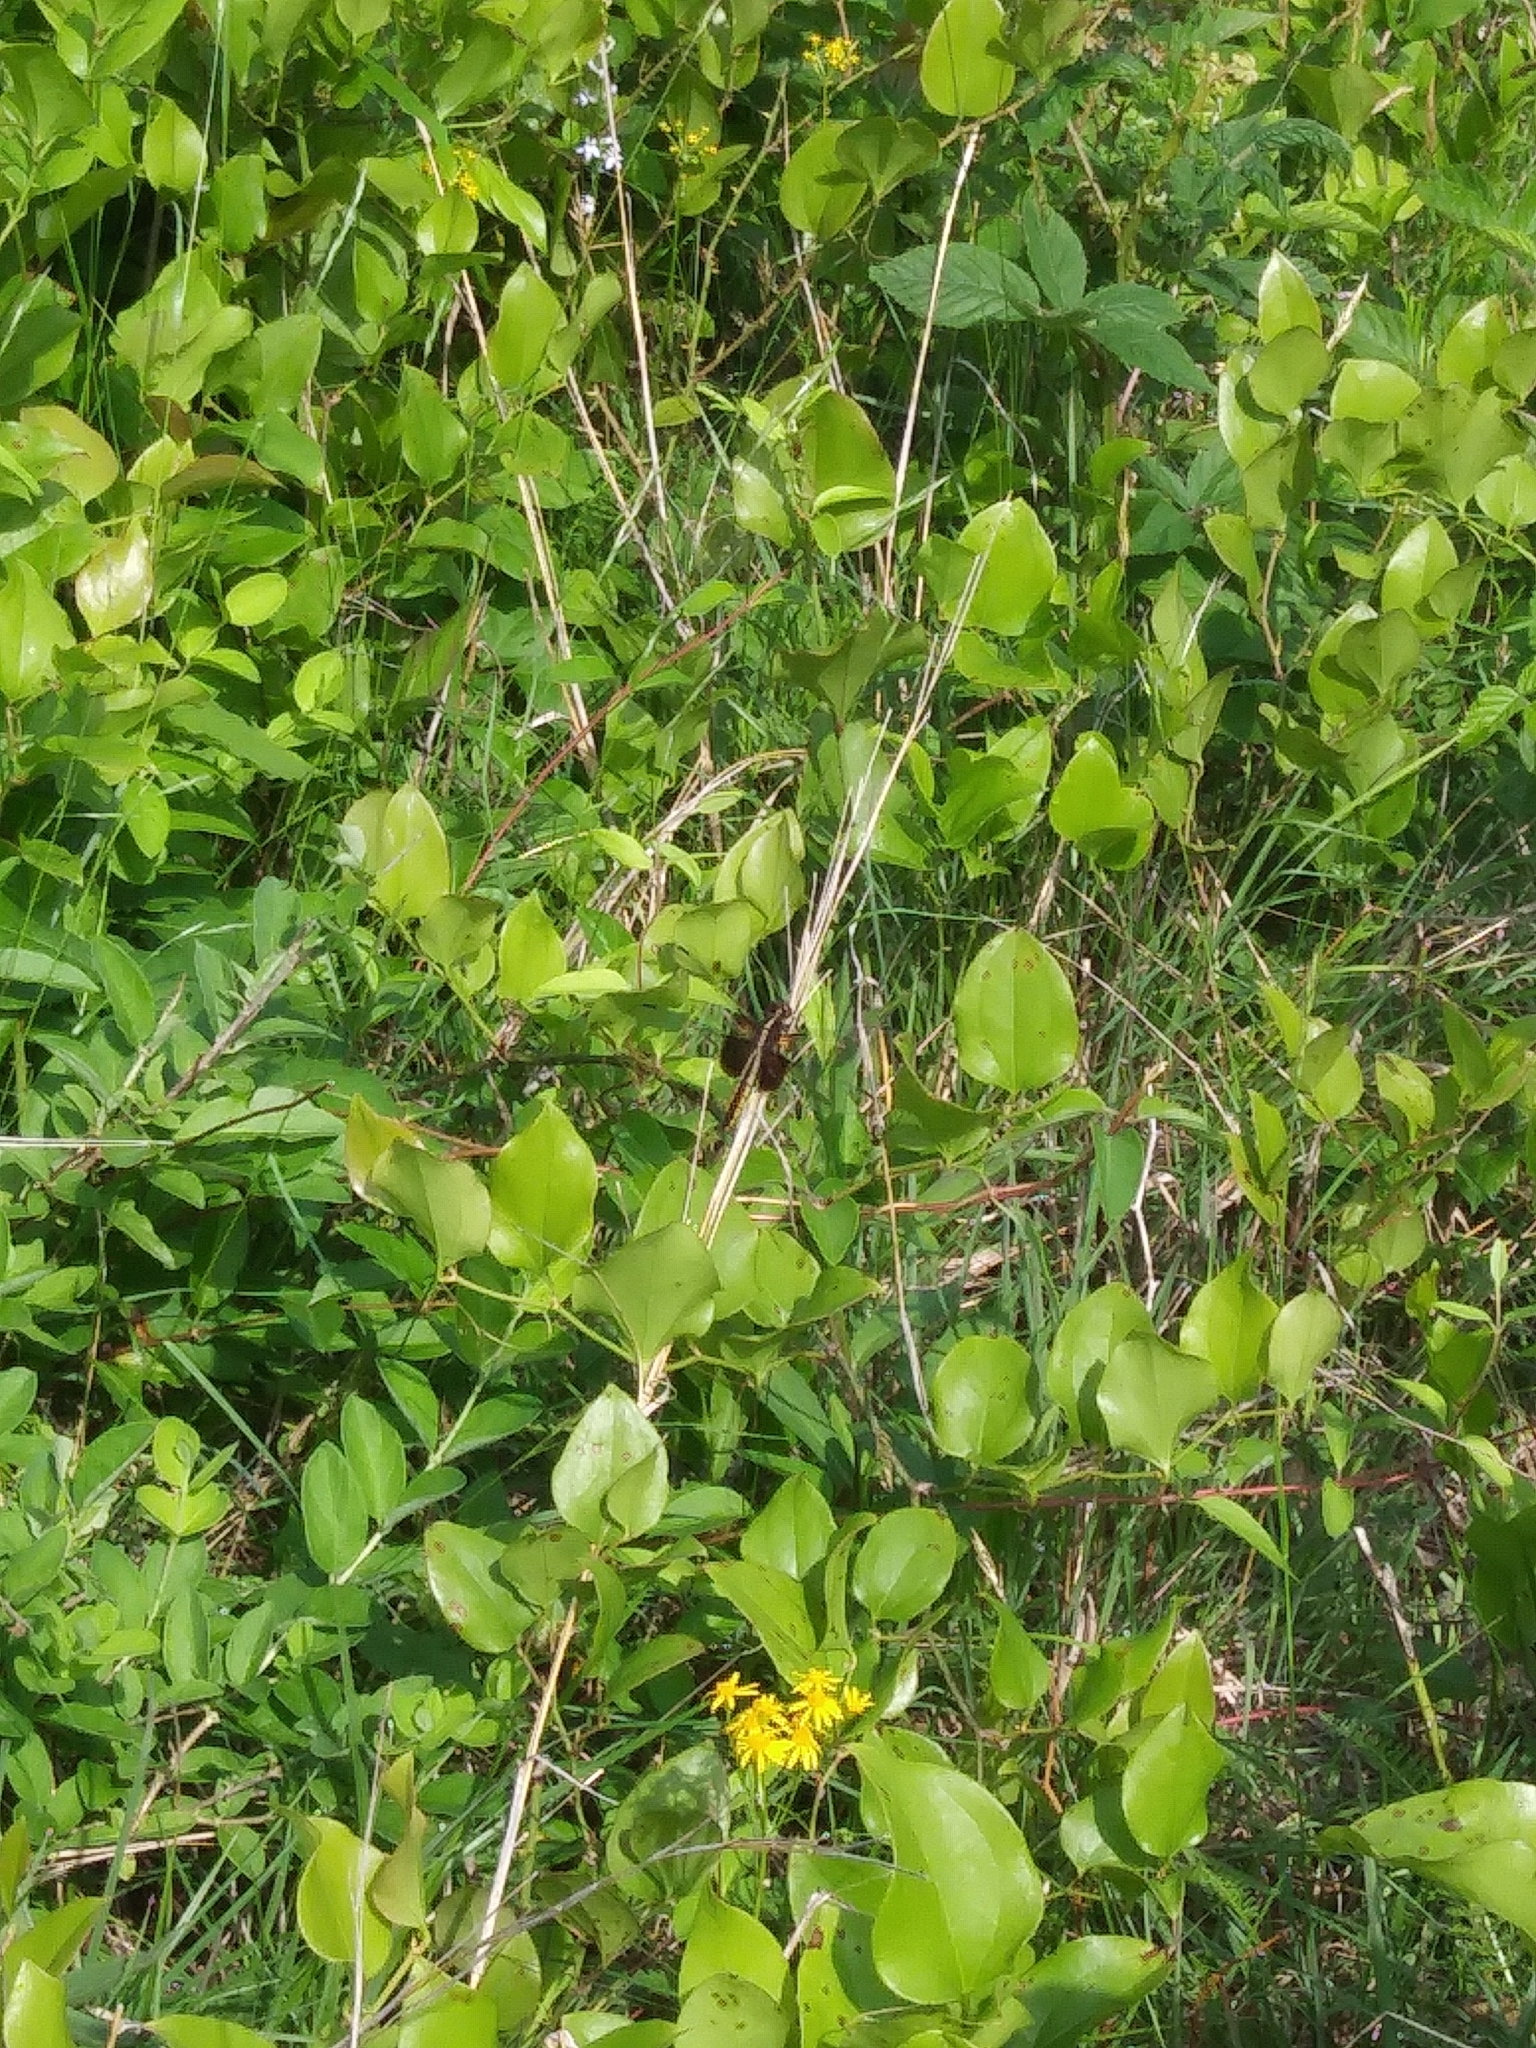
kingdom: Animalia
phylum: Arthropoda
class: Insecta
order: Odonata
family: Libellulidae
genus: Libellula
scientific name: Libellula luctuosa
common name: Widow skimmer
